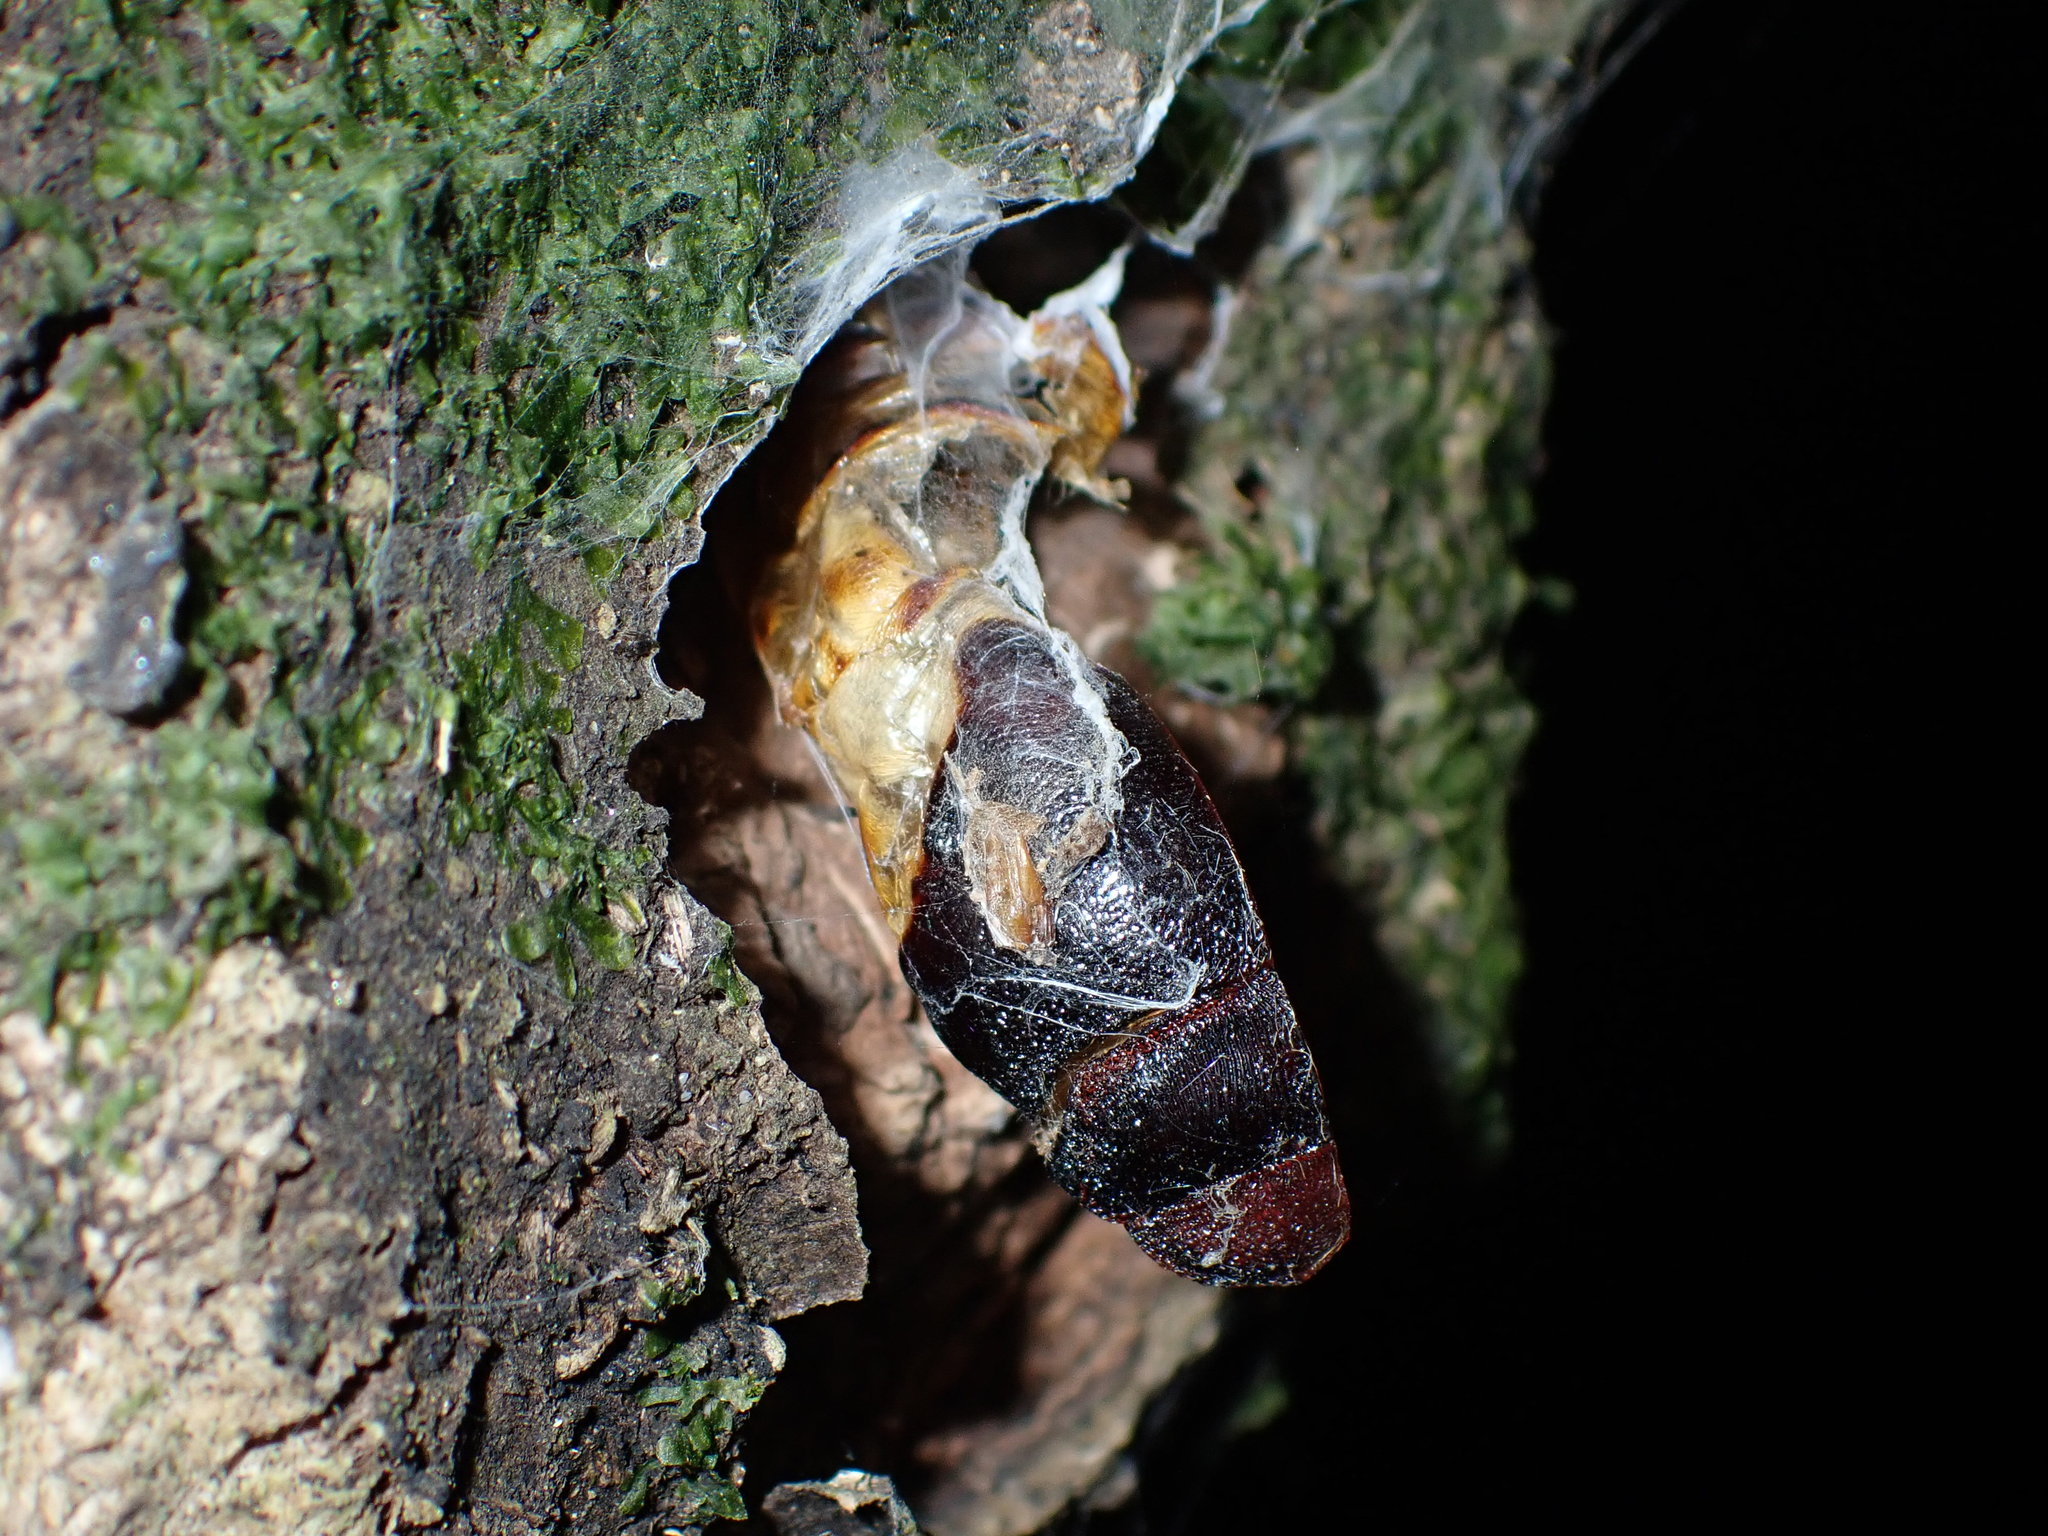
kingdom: Animalia
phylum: Arthropoda
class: Insecta
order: Lepidoptera
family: Hepialidae
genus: Aenetus
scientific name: Aenetus virescens
